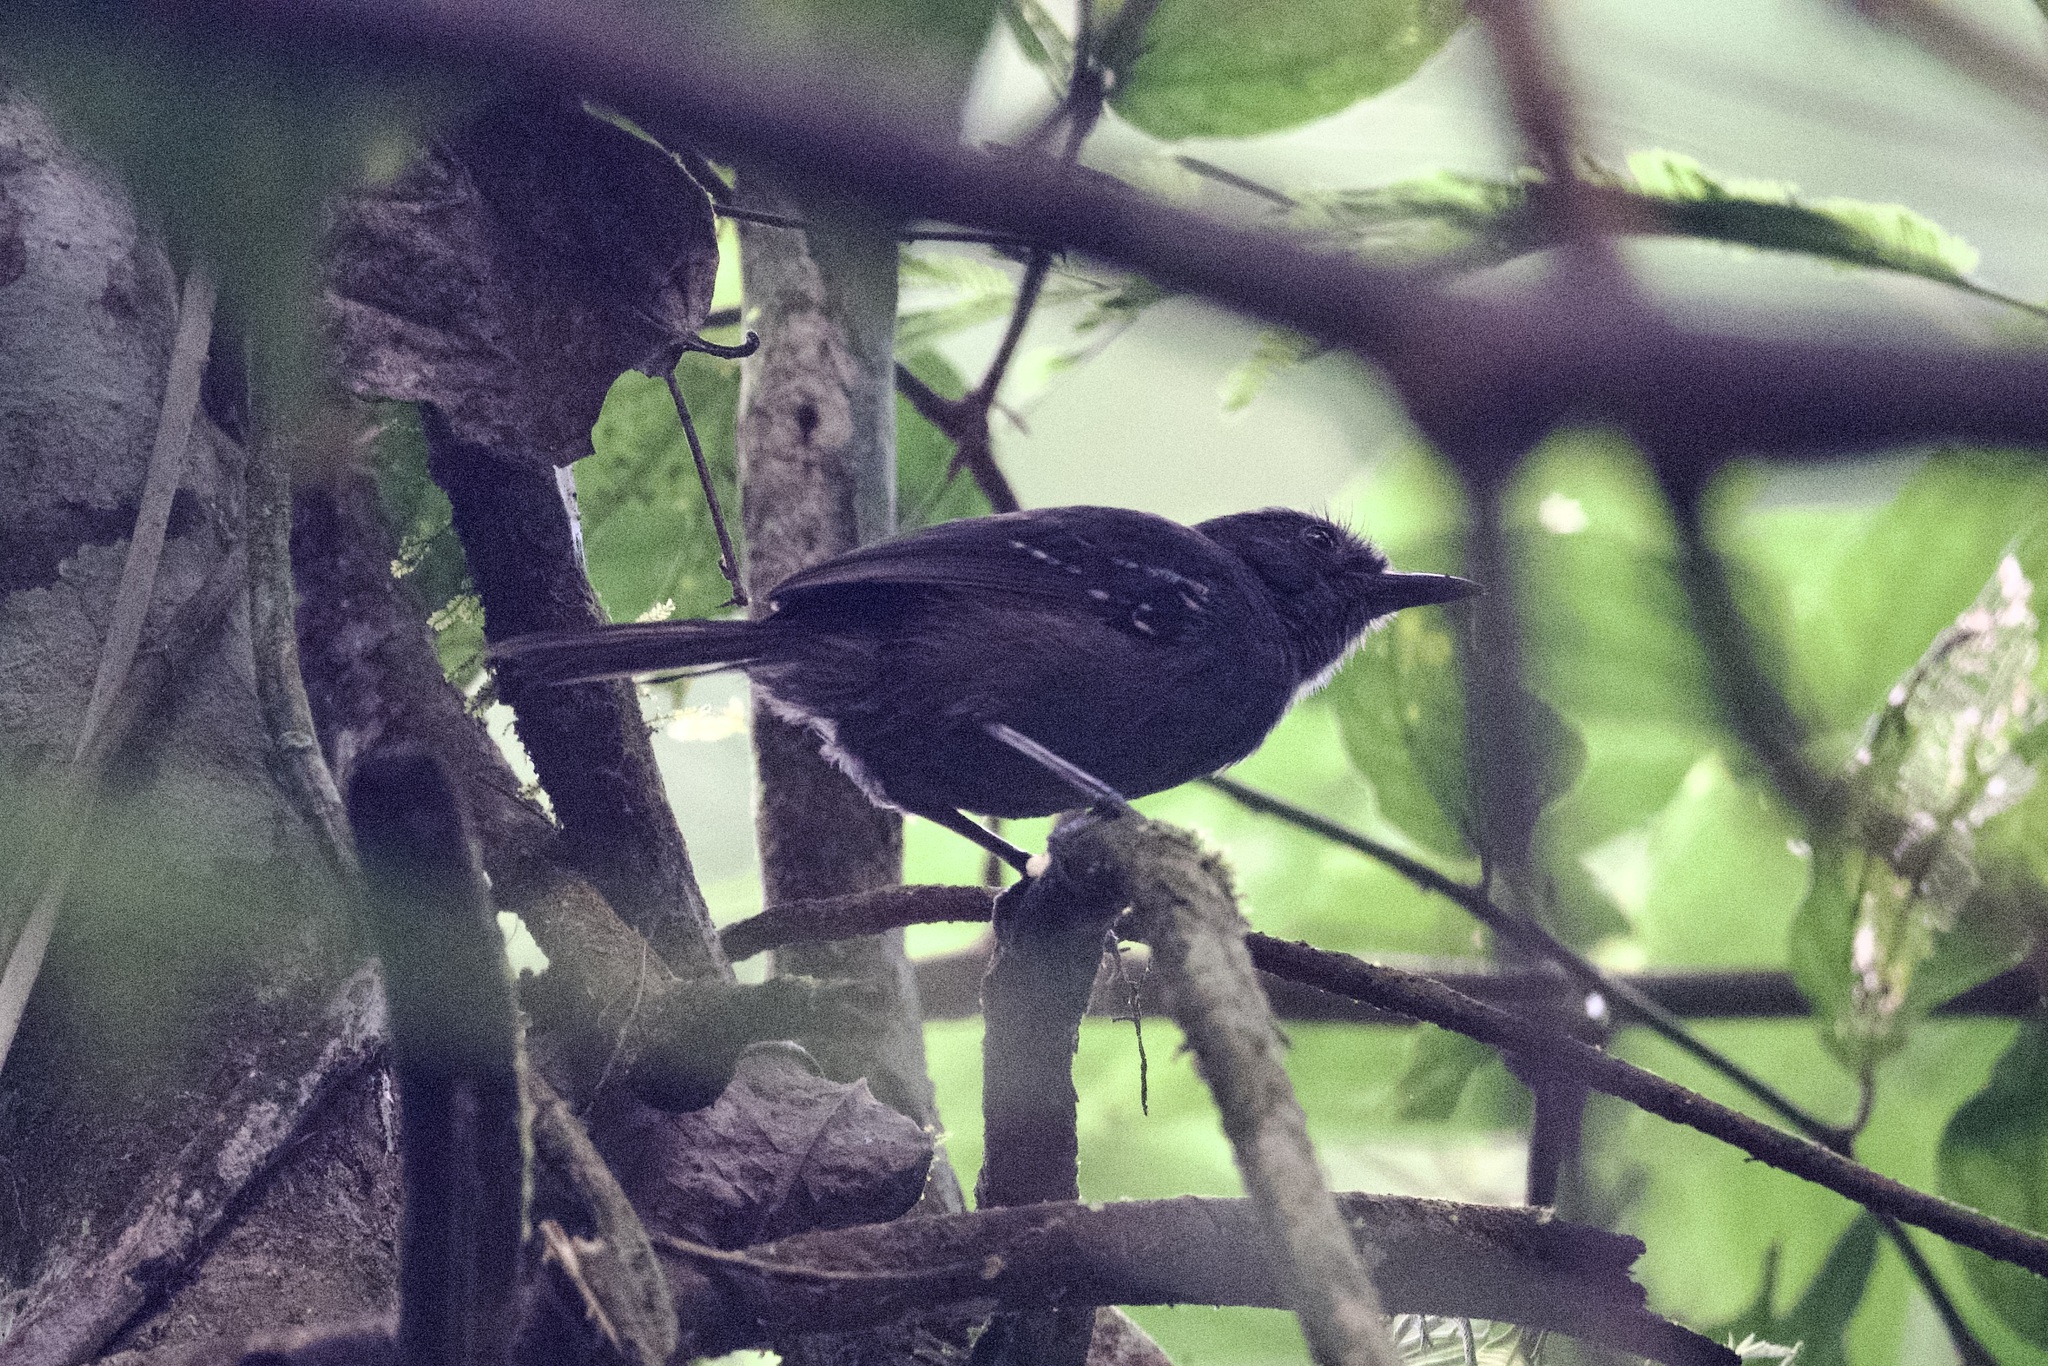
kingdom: Animalia
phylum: Chordata
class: Aves
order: Passeriformes
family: Thamnophilidae
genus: Cercomacra
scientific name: Cercomacra tyrannina
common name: Dusky antbird
